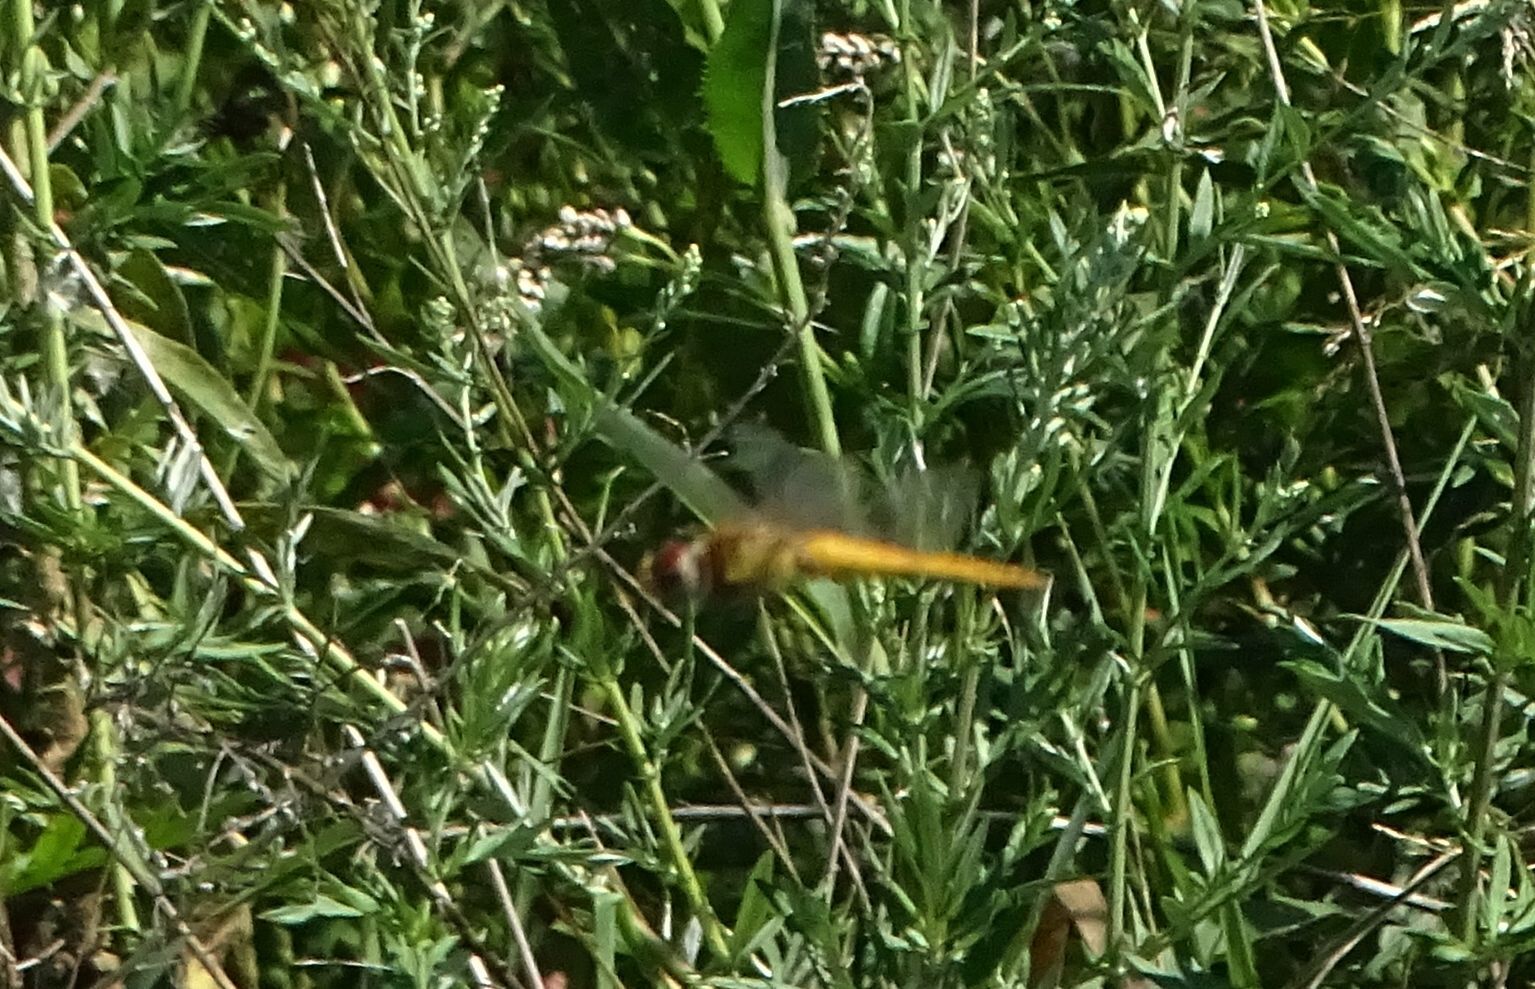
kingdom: Animalia
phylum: Arthropoda
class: Insecta
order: Odonata
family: Libellulidae
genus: Pantala
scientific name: Pantala flavescens
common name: Wandering glider
